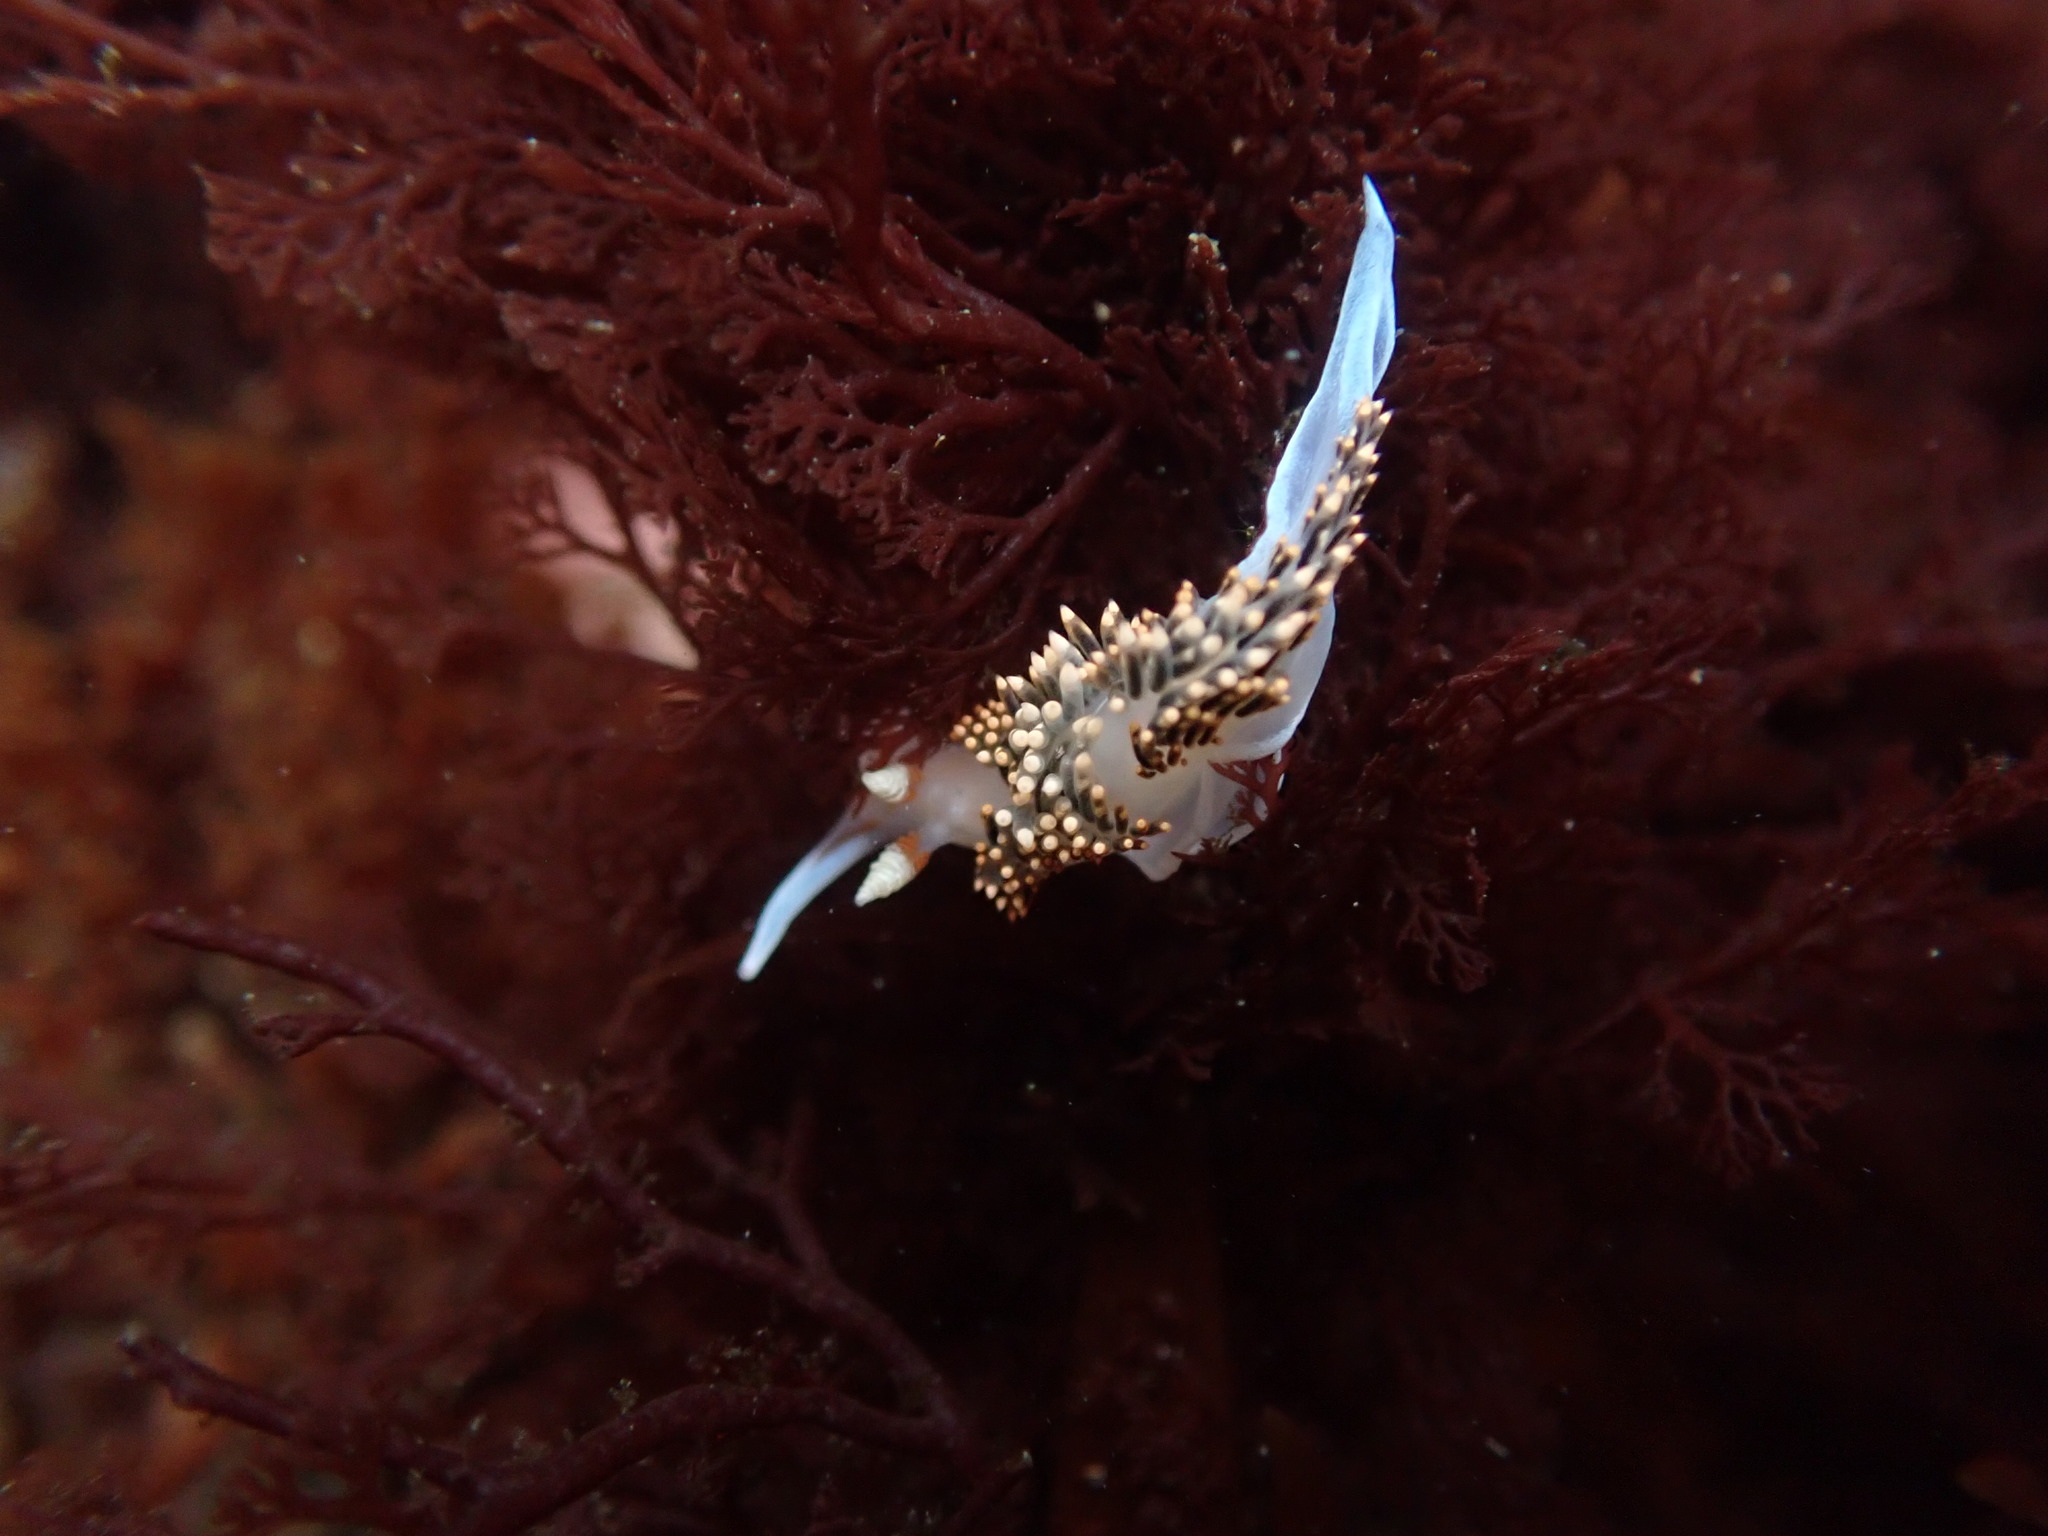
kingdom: Animalia
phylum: Mollusca
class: Gastropoda
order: Nudibranchia
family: Facelinidae
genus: Phidiana
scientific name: Phidiana hiltoni
